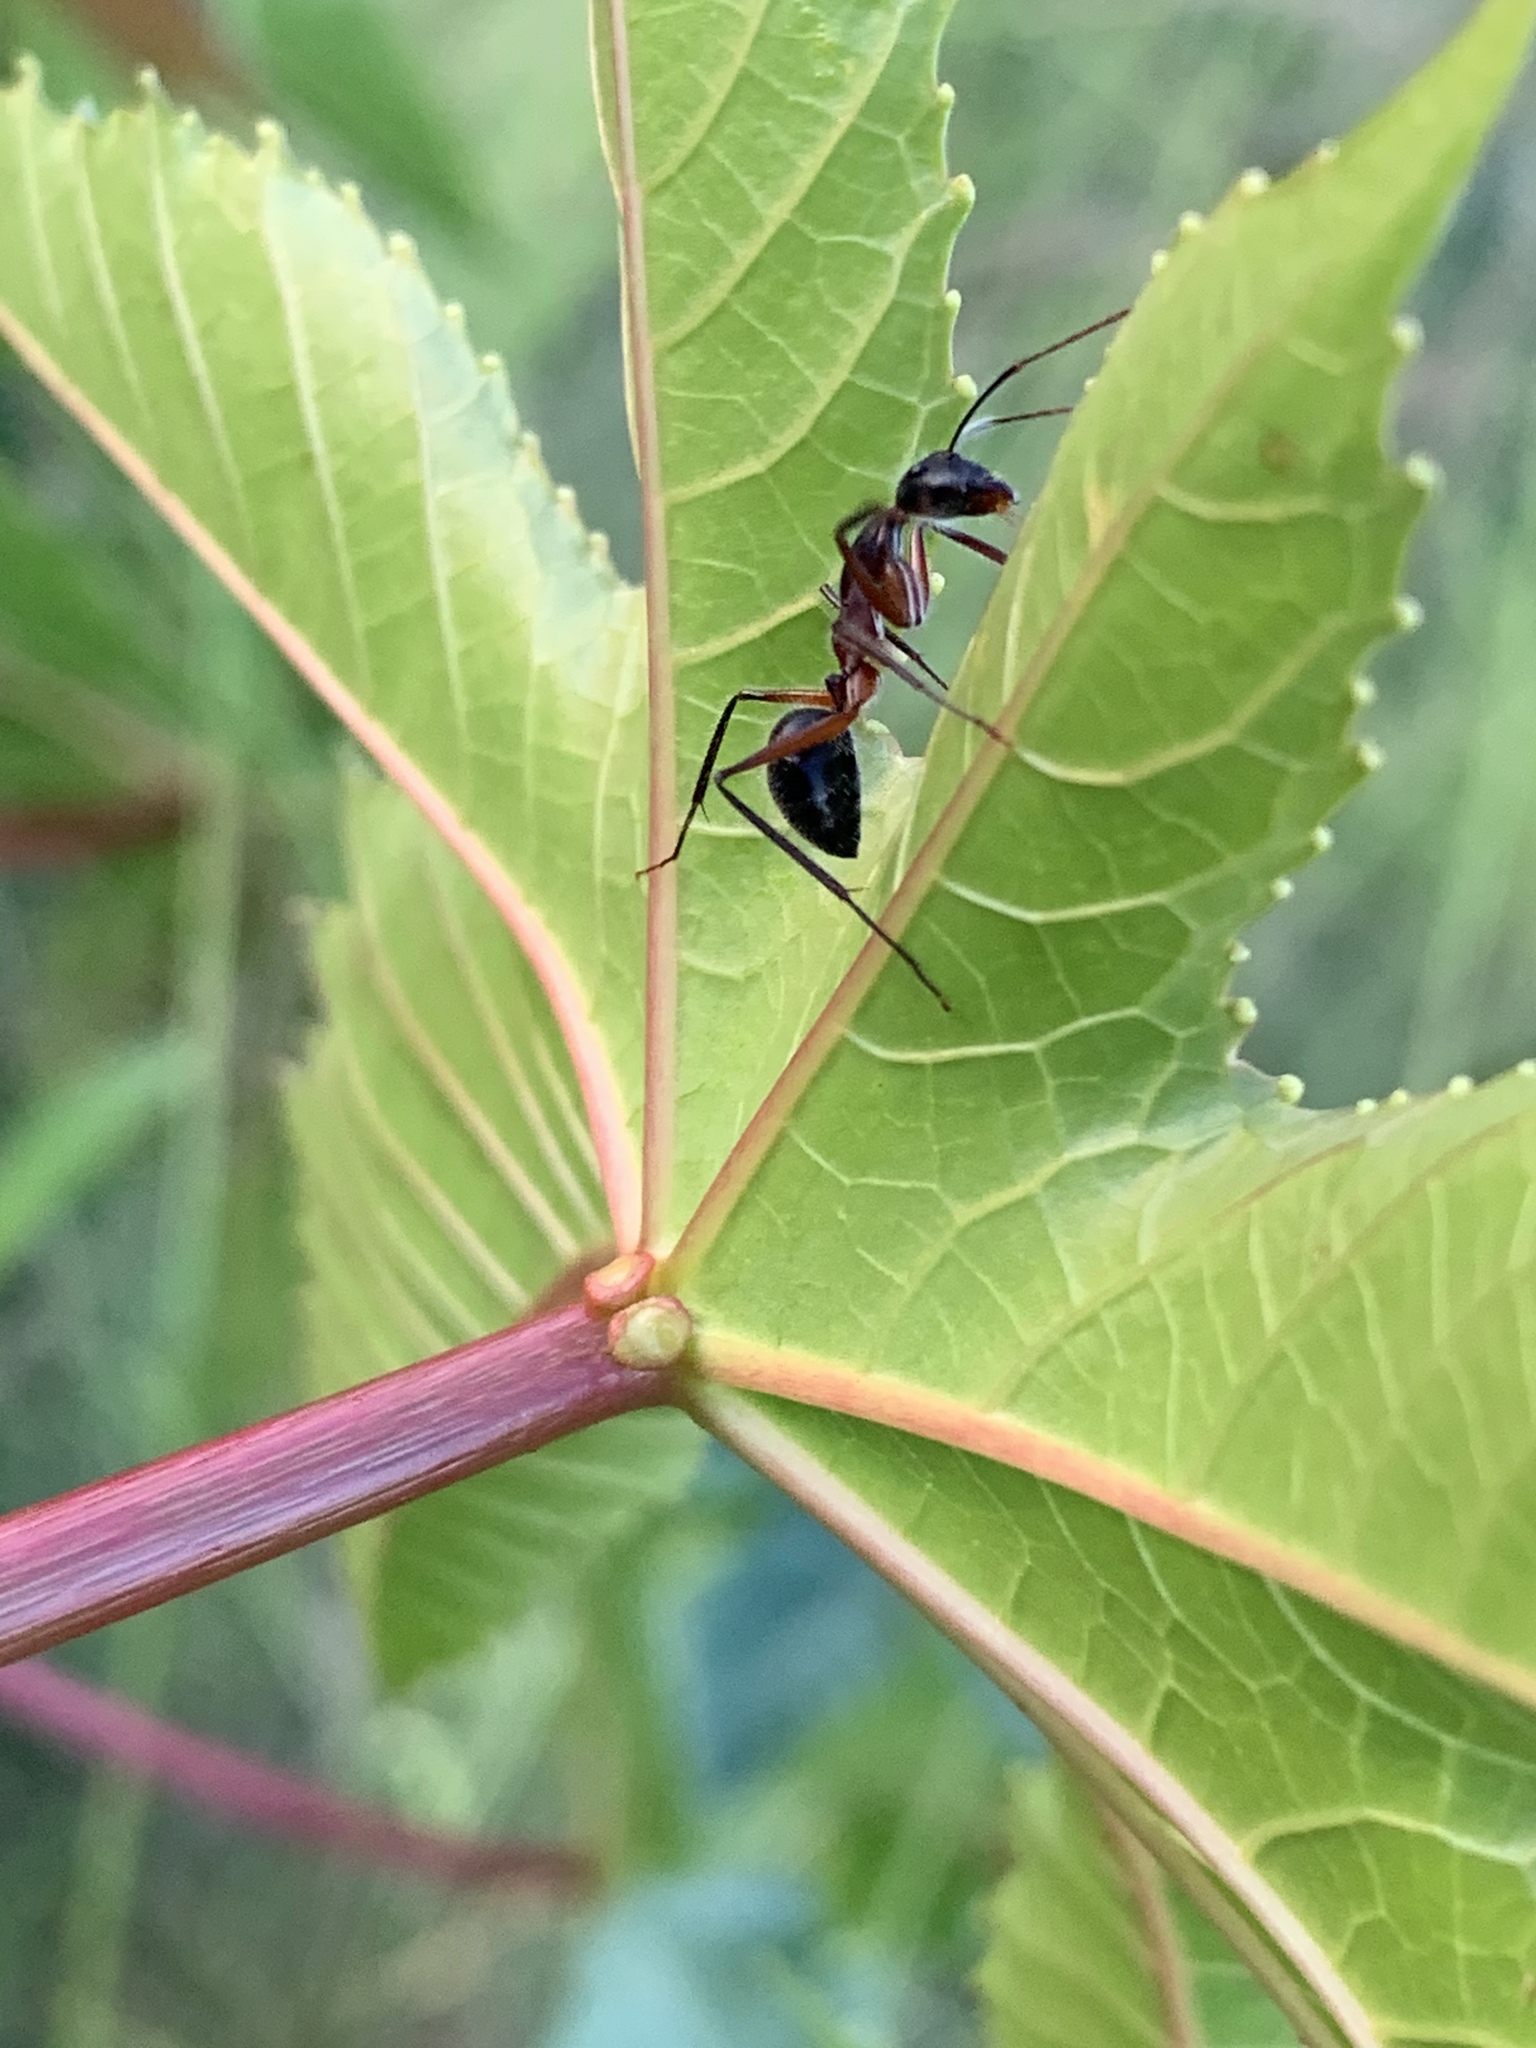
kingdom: Animalia
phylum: Arthropoda
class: Insecta
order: Hymenoptera
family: Formicidae
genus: Camponotus
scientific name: Camponotus intrepidus
